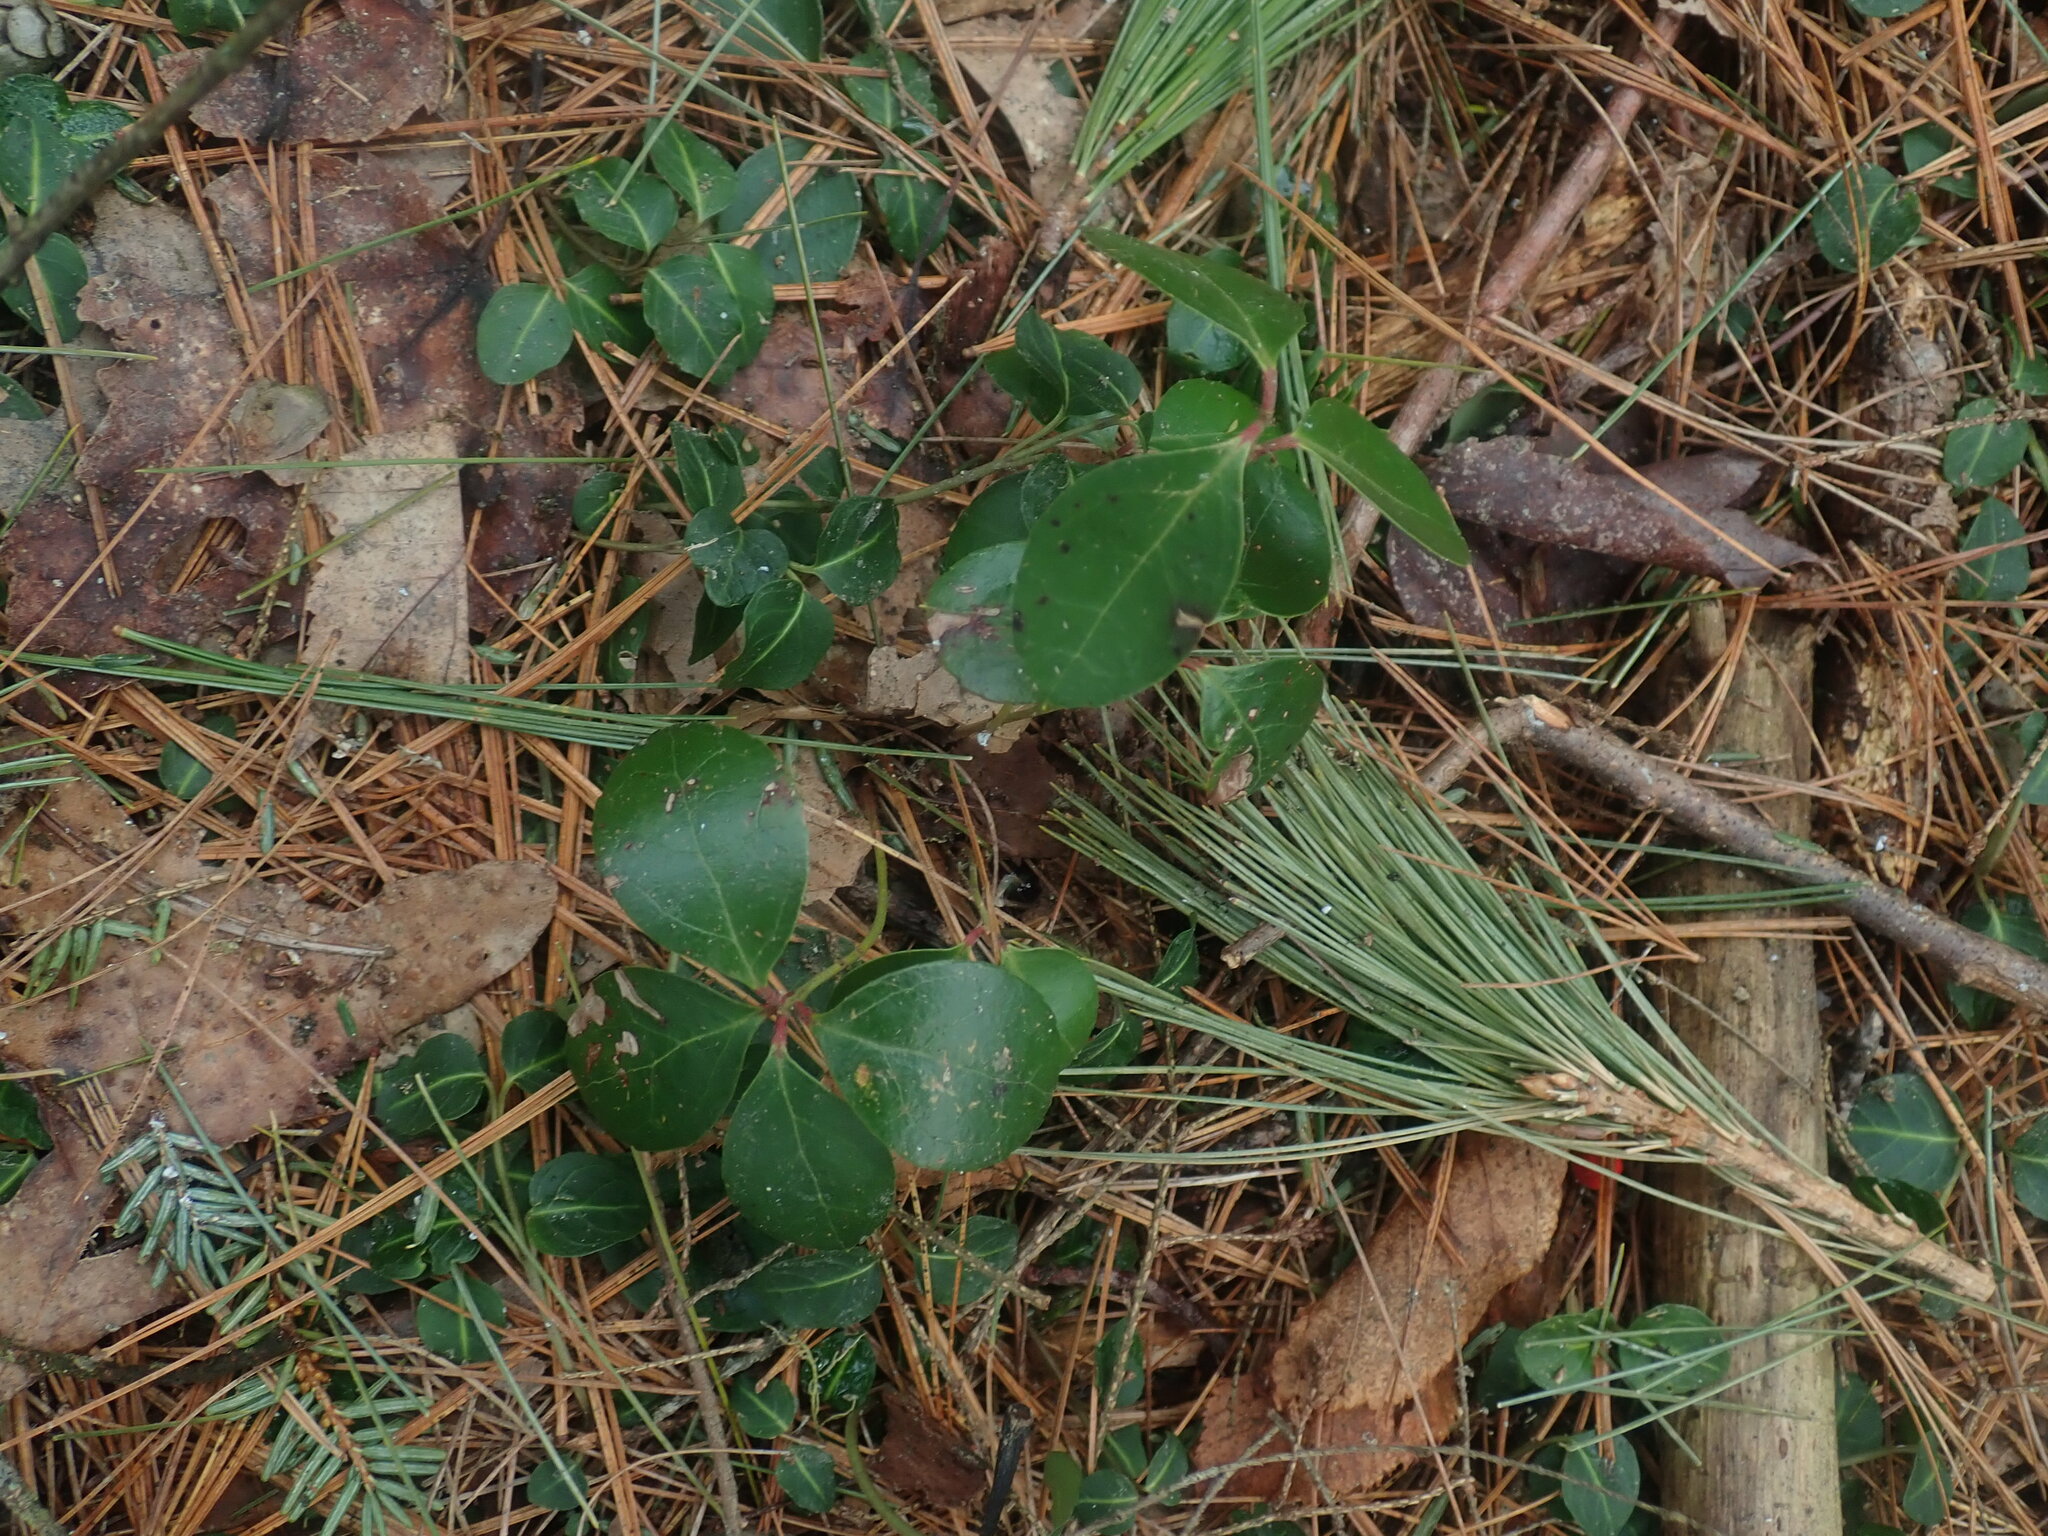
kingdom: Plantae
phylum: Tracheophyta
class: Magnoliopsida
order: Ericales
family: Ericaceae
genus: Gaultheria
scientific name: Gaultheria procumbens
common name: Checkerberry
